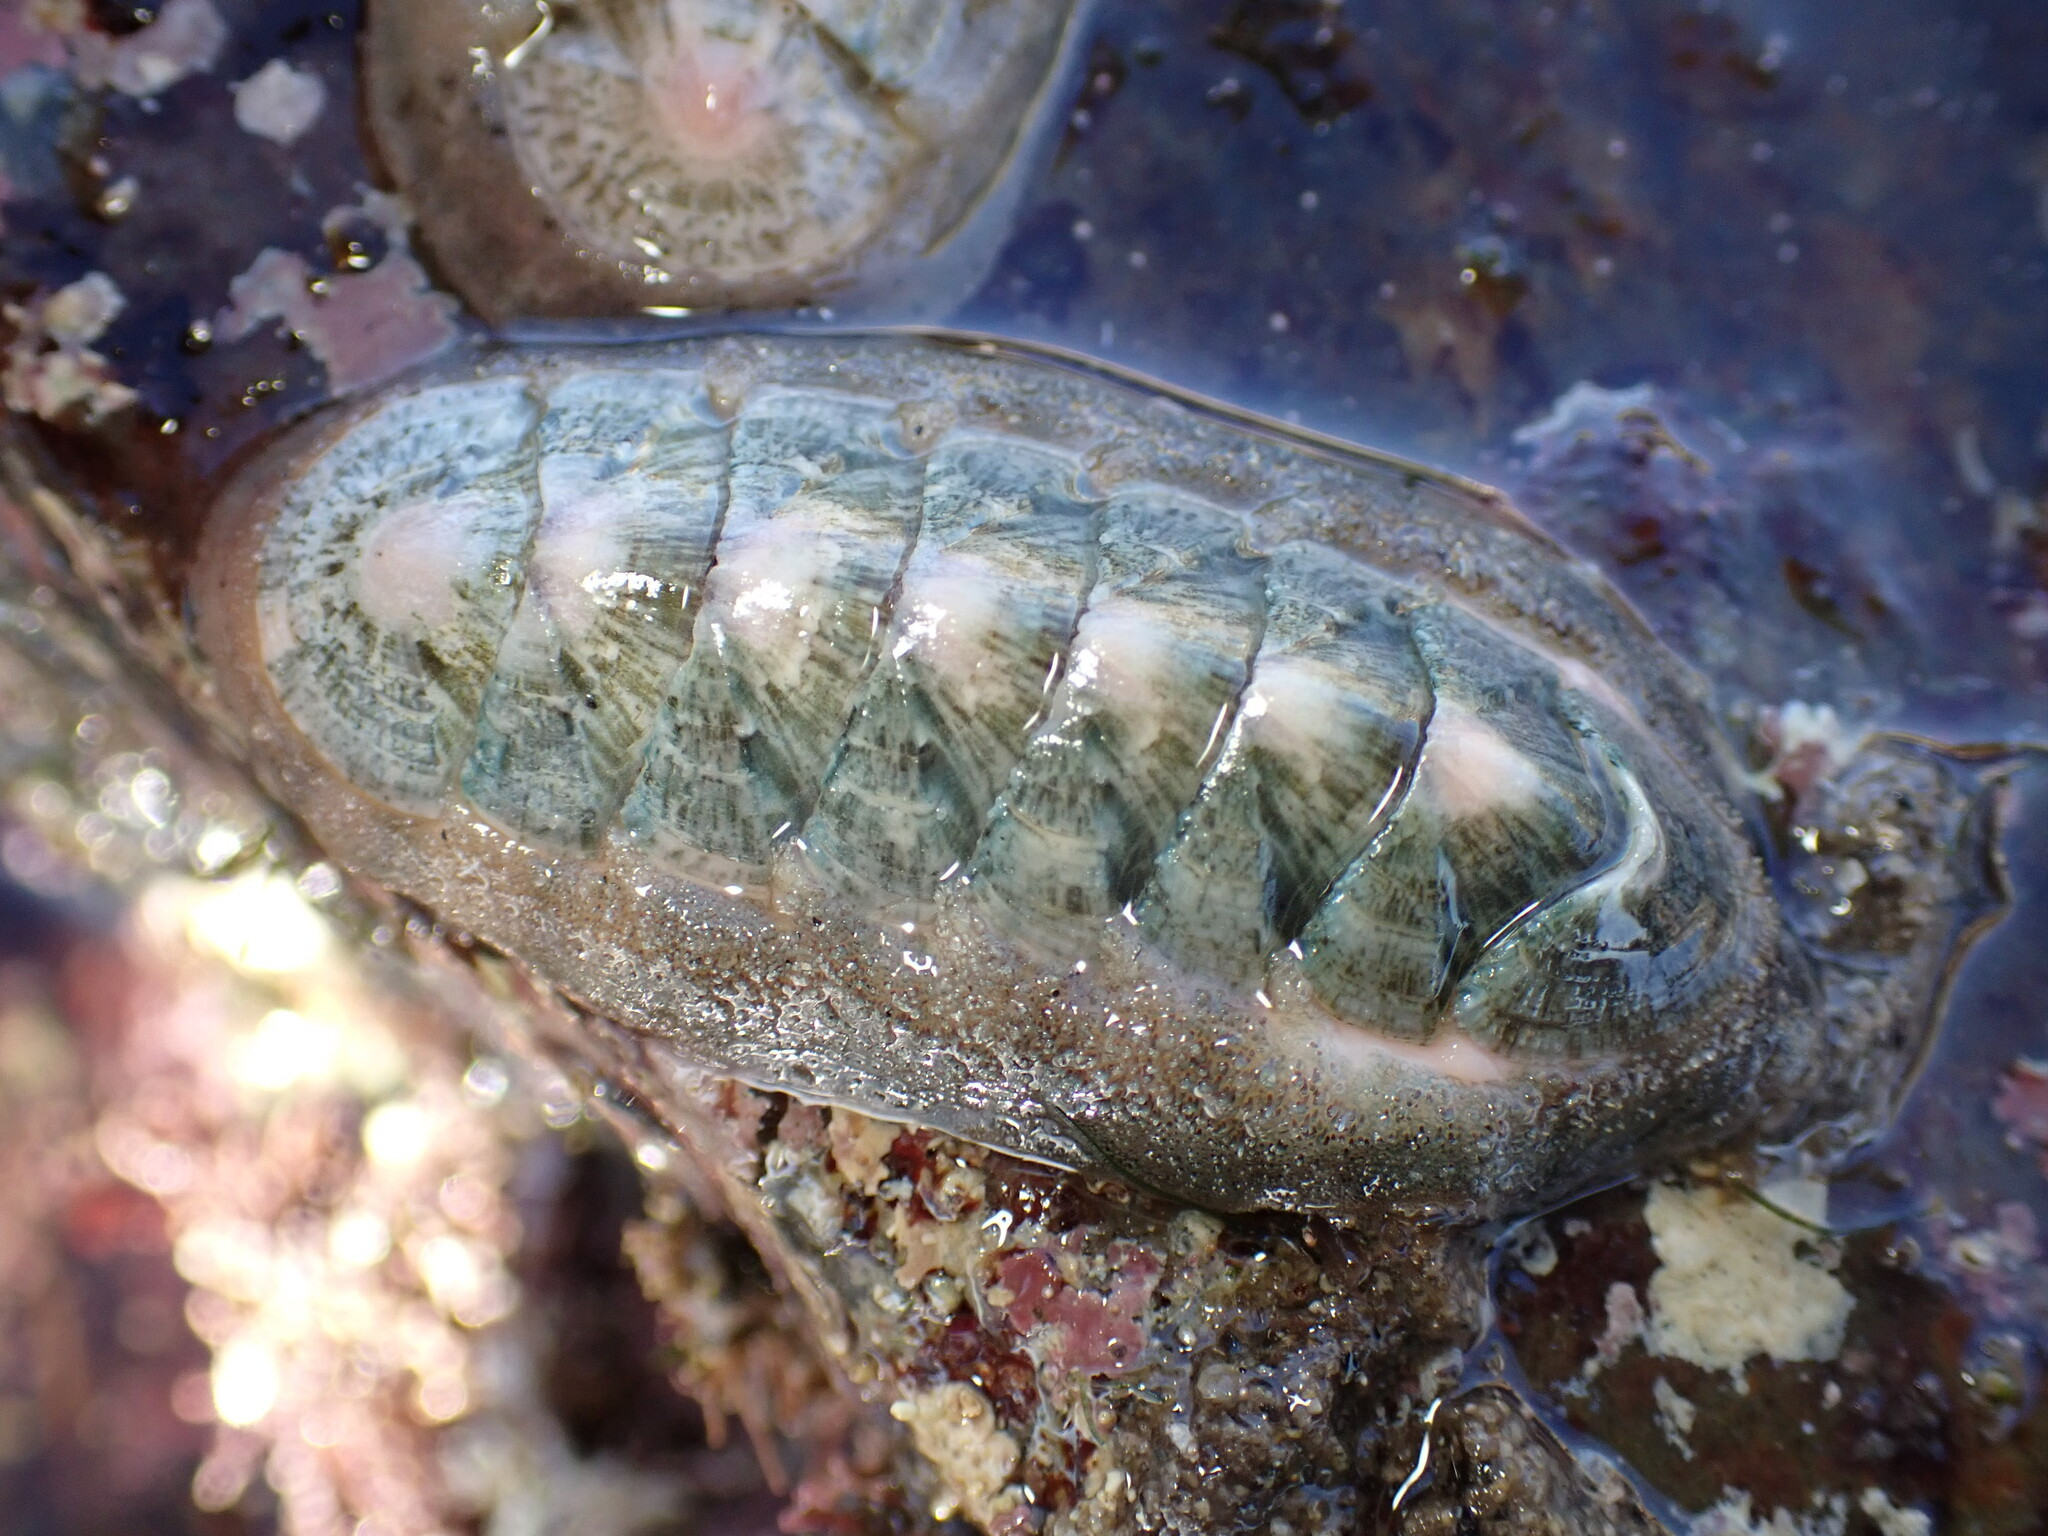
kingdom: Animalia
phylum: Mollusca
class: Polyplacophora
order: Chitonida
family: Ischnochitonidae
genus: Stenoplax
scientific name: Stenoplax conspicua
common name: Conspicuous chiton
